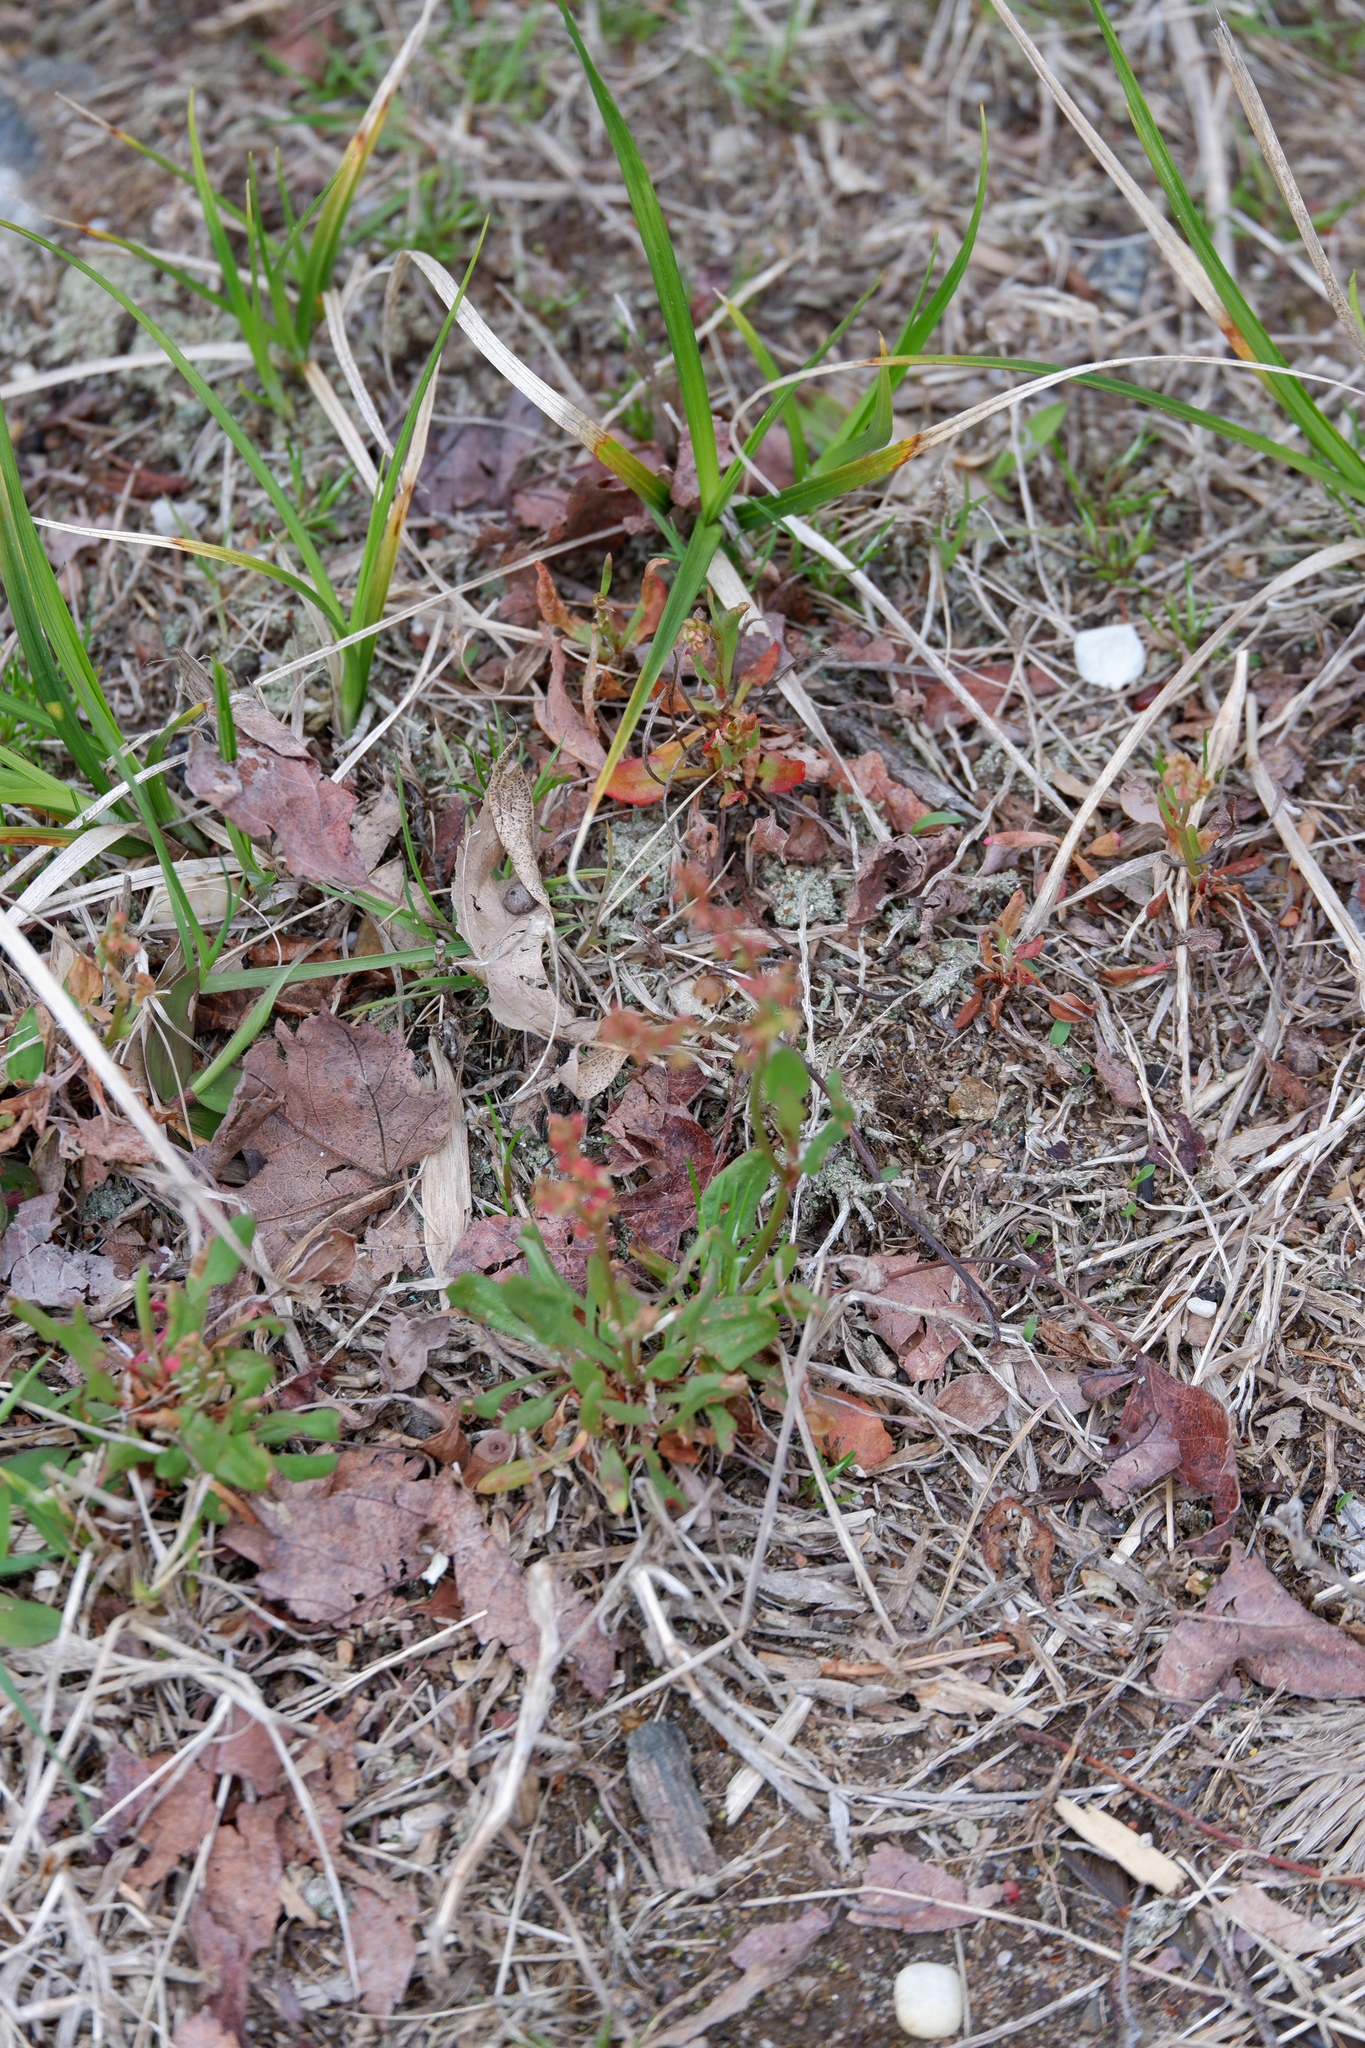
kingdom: Plantae
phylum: Tracheophyta
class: Magnoliopsida
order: Caryophyllales
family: Polygonaceae
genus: Rumex
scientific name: Rumex acetosella
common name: Common sheep sorrel
